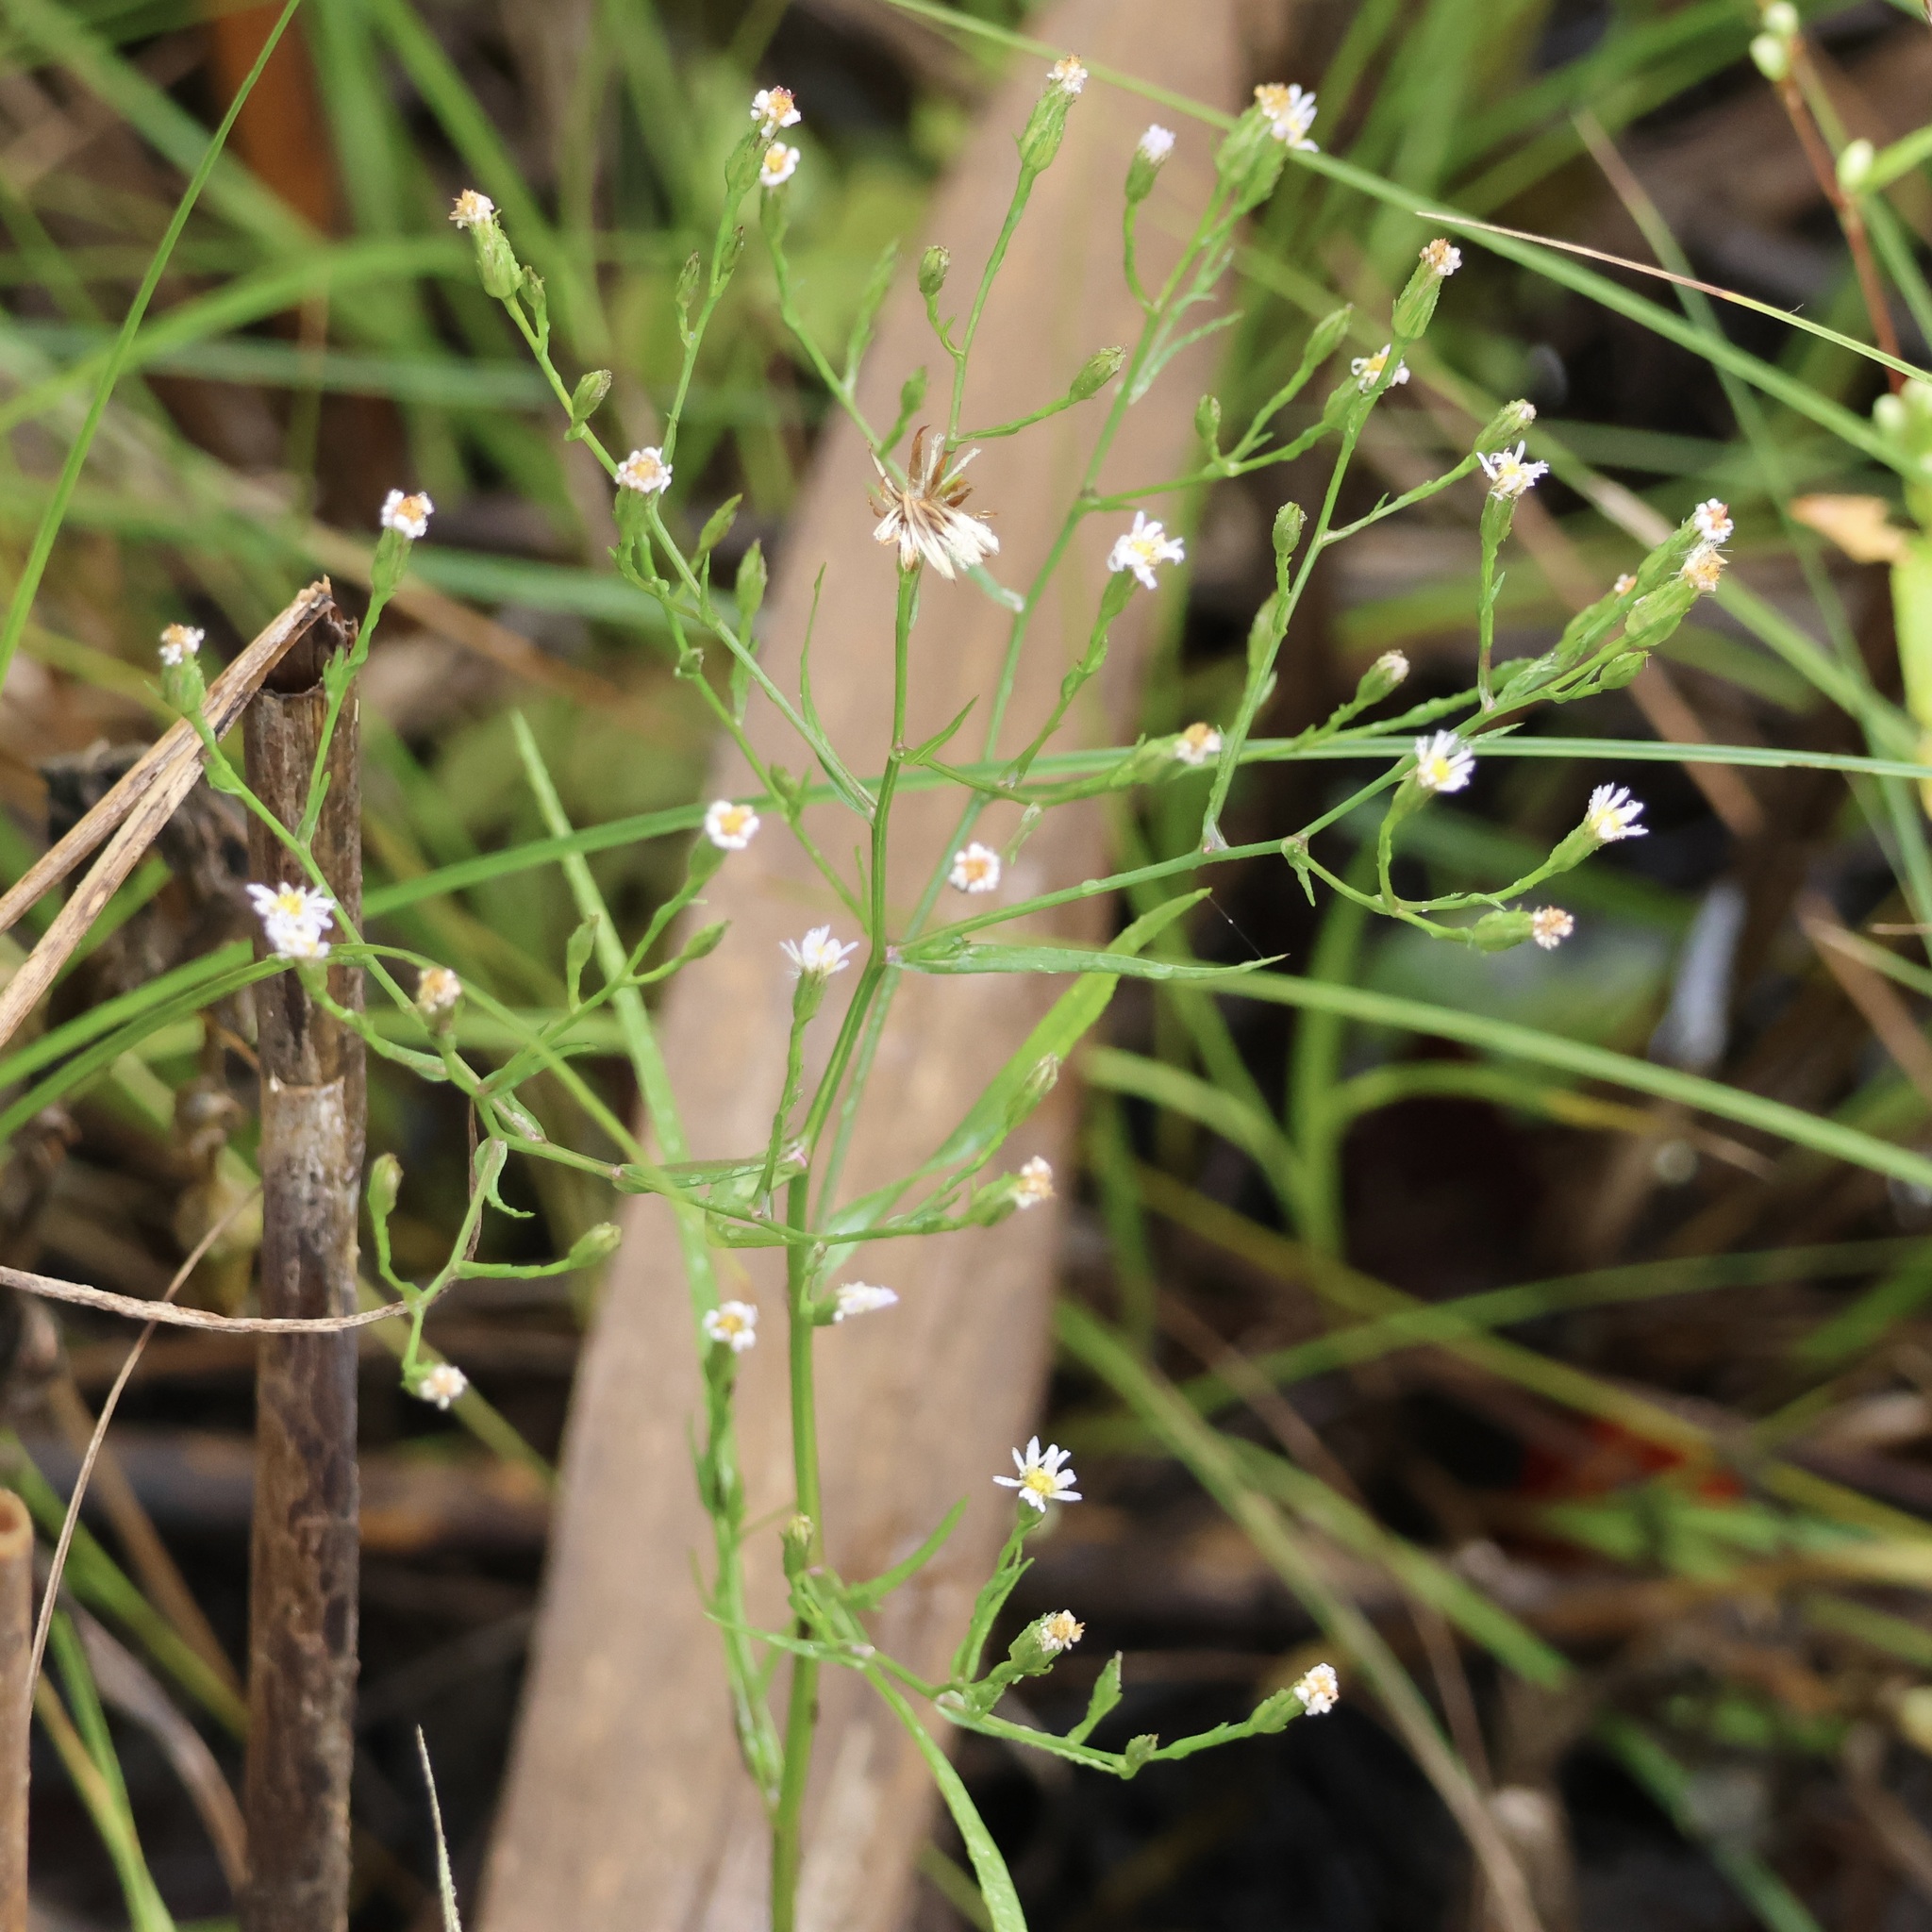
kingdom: Plantae
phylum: Tracheophyta
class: Magnoliopsida
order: Asterales
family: Asteraceae
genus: Symphyotrichum
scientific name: Symphyotrichum subulatum
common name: Annual saltmarsh aster
